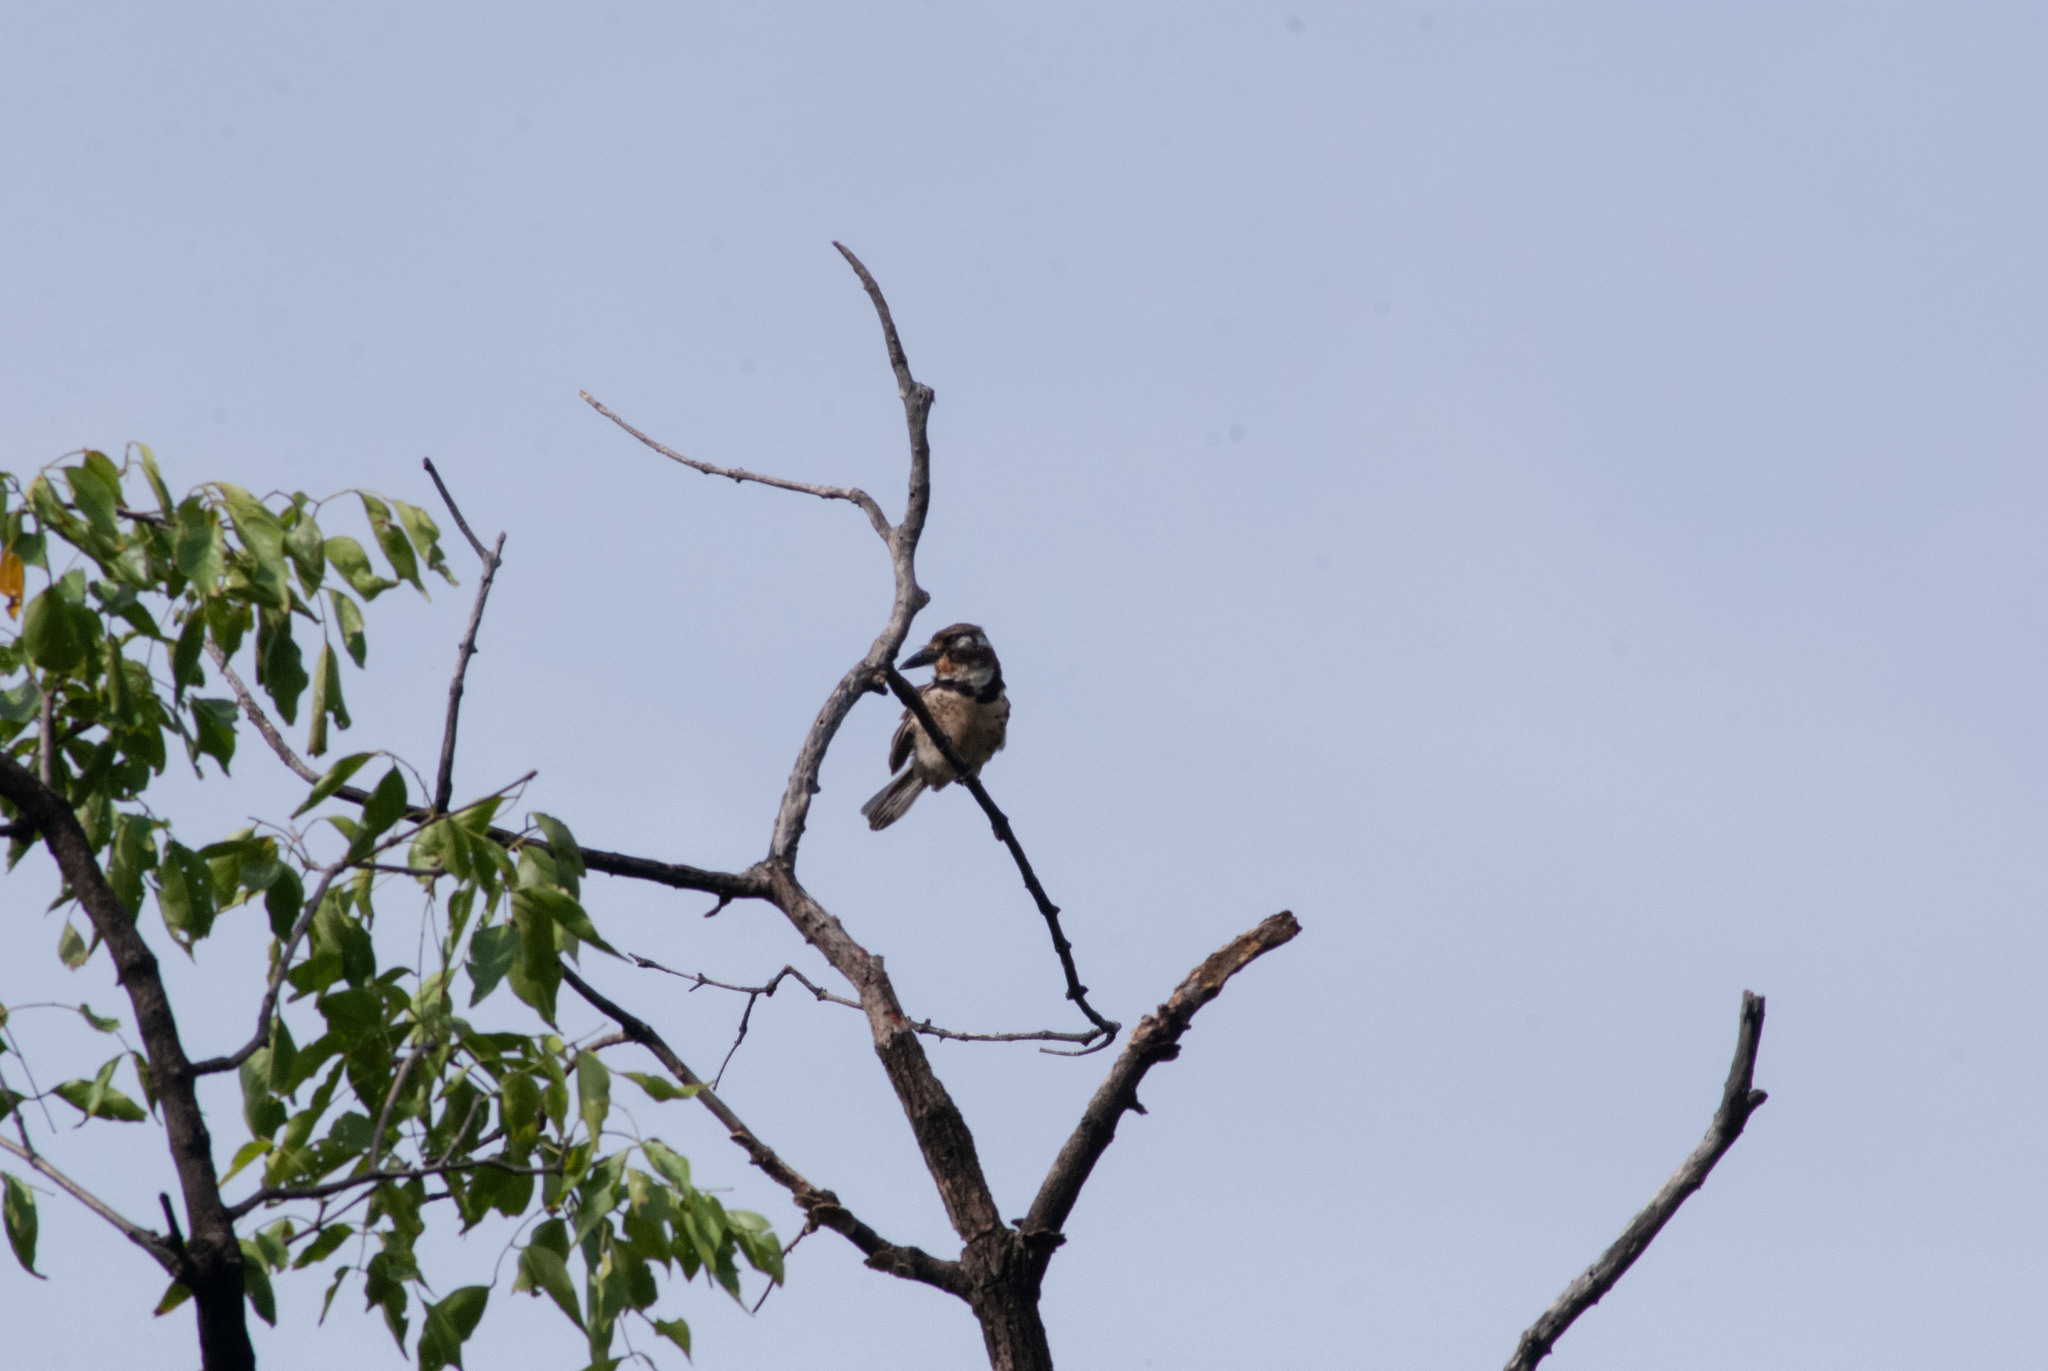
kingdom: Animalia
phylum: Chordata
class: Aves
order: Piciformes
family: Bucconidae
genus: Hypnelus
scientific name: Hypnelus ruficollis
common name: Russet-throated puffbird
